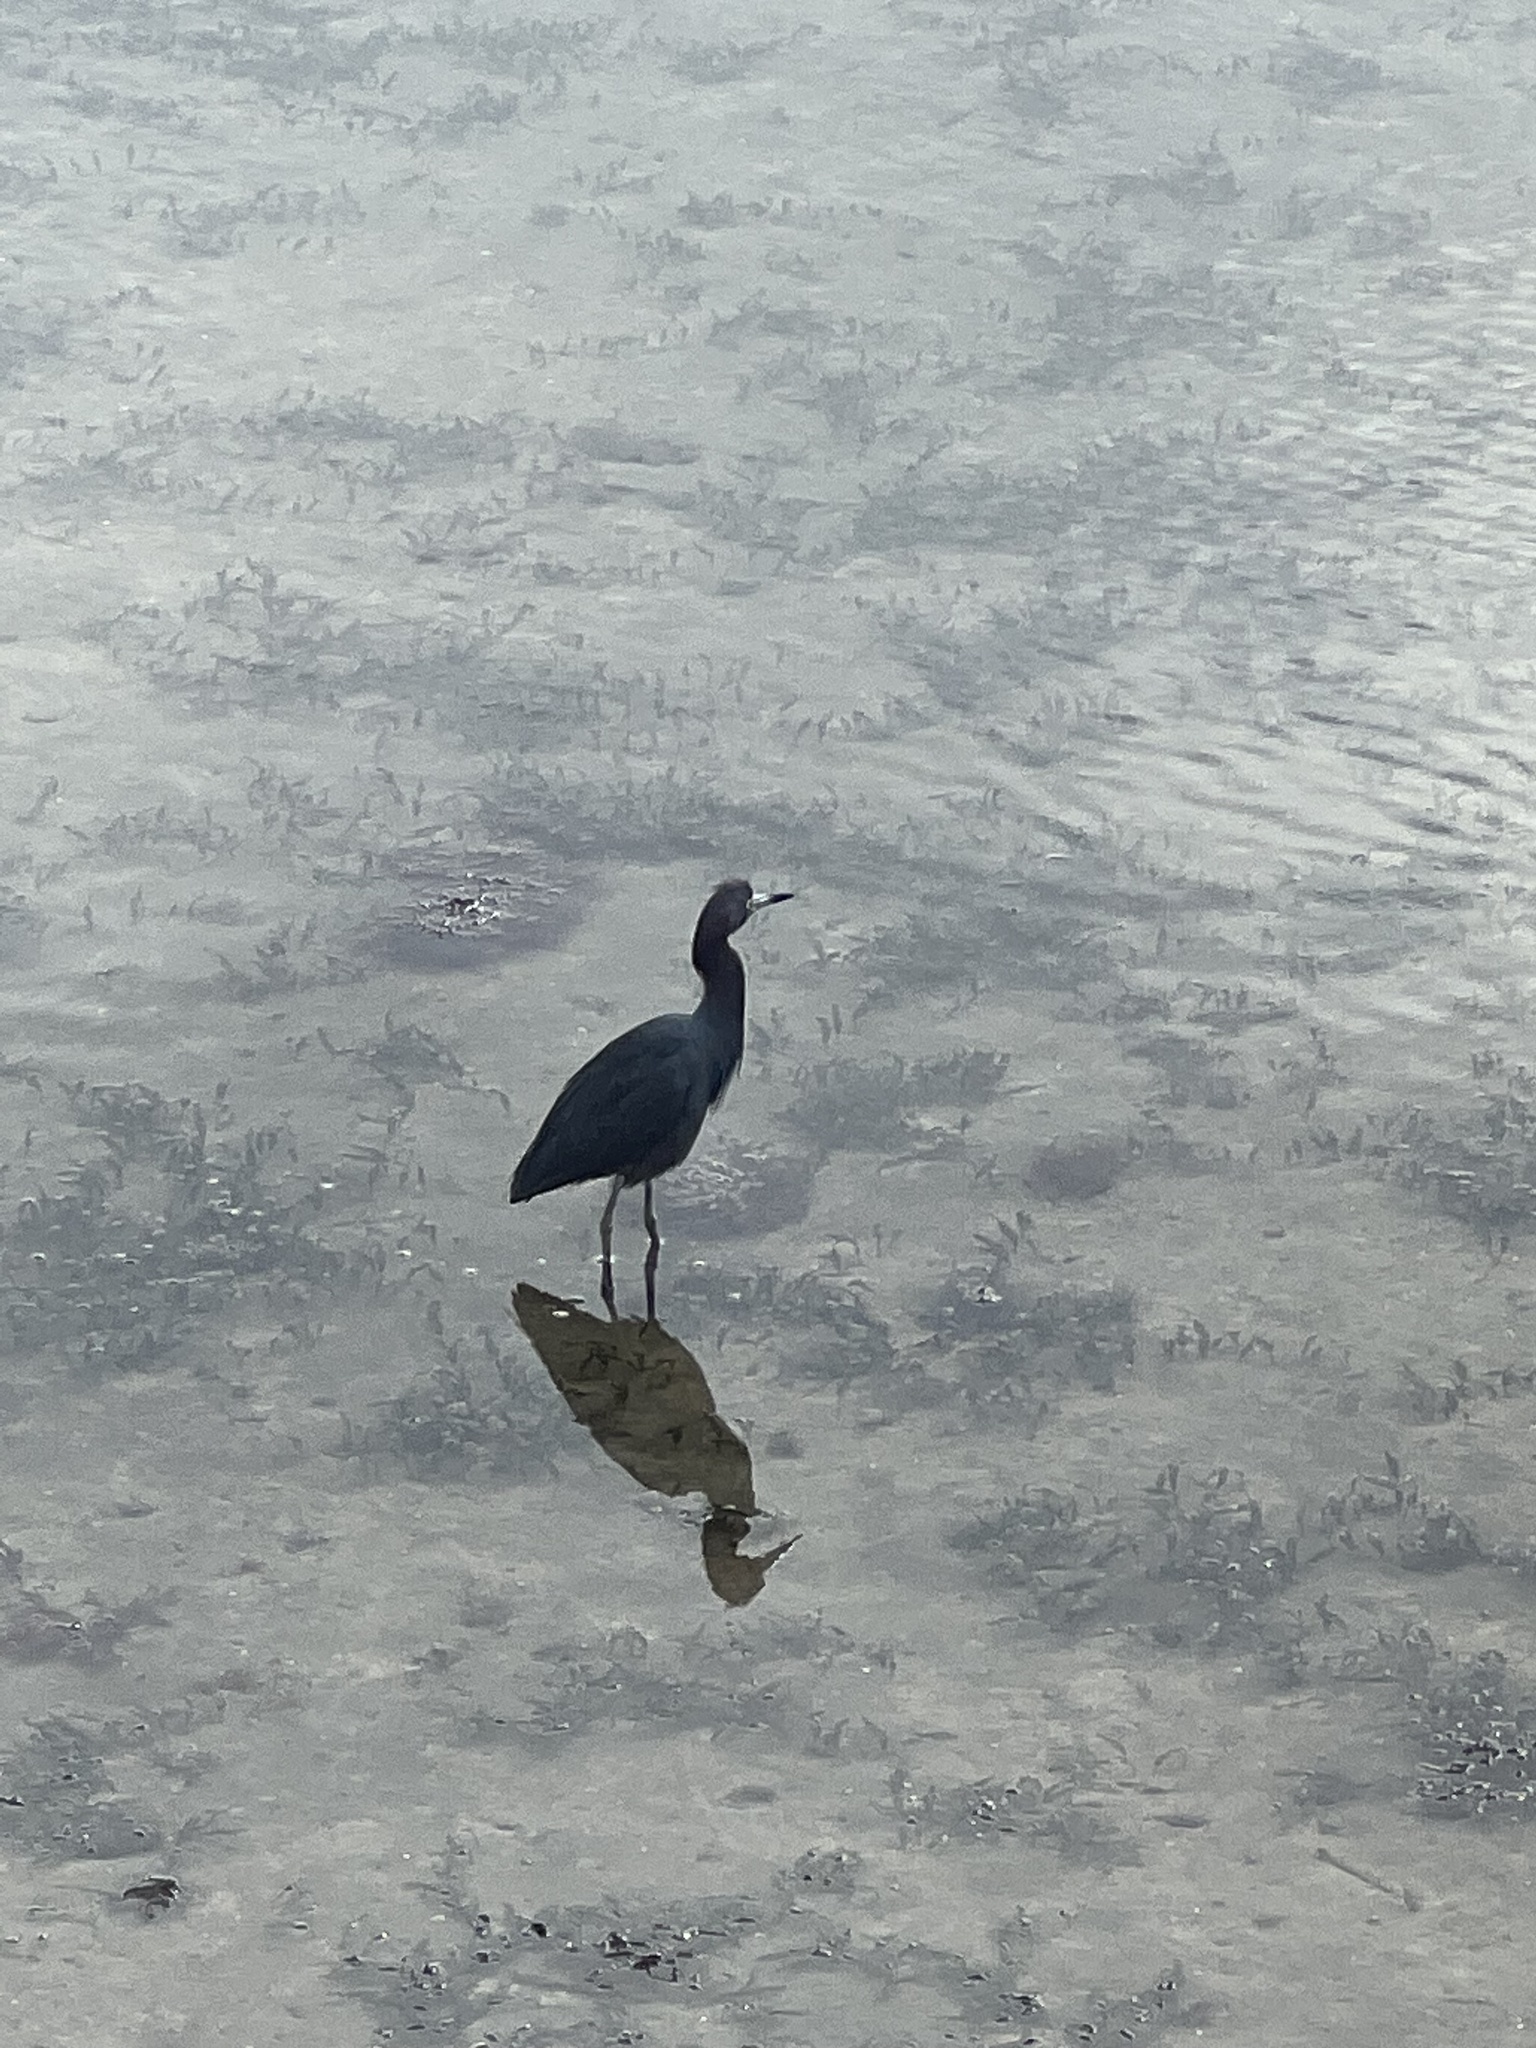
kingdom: Animalia
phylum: Chordata
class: Aves
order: Pelecaniformes
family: Ardeidae
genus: Egretta
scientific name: Egretta caerulea
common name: Little blue heron
